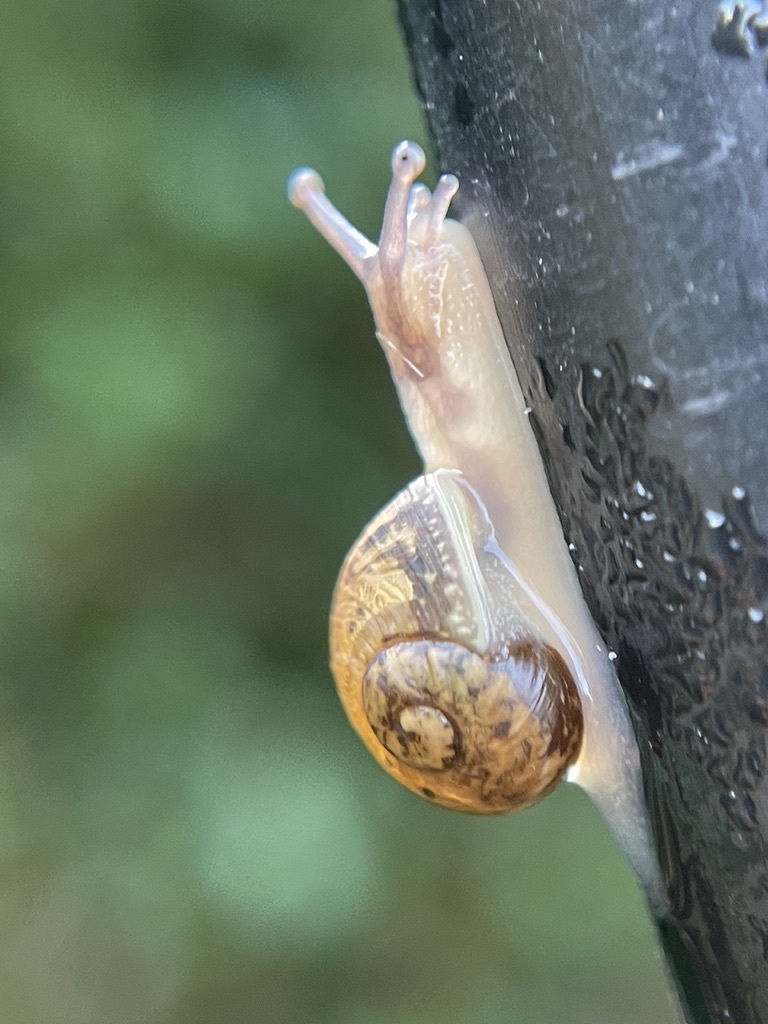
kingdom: Animalia
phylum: Mollusca
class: Gastropoda
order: Stylommatophora
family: Helicidae
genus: Cornu
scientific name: Cornu aspersum
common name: Brown garden snail
